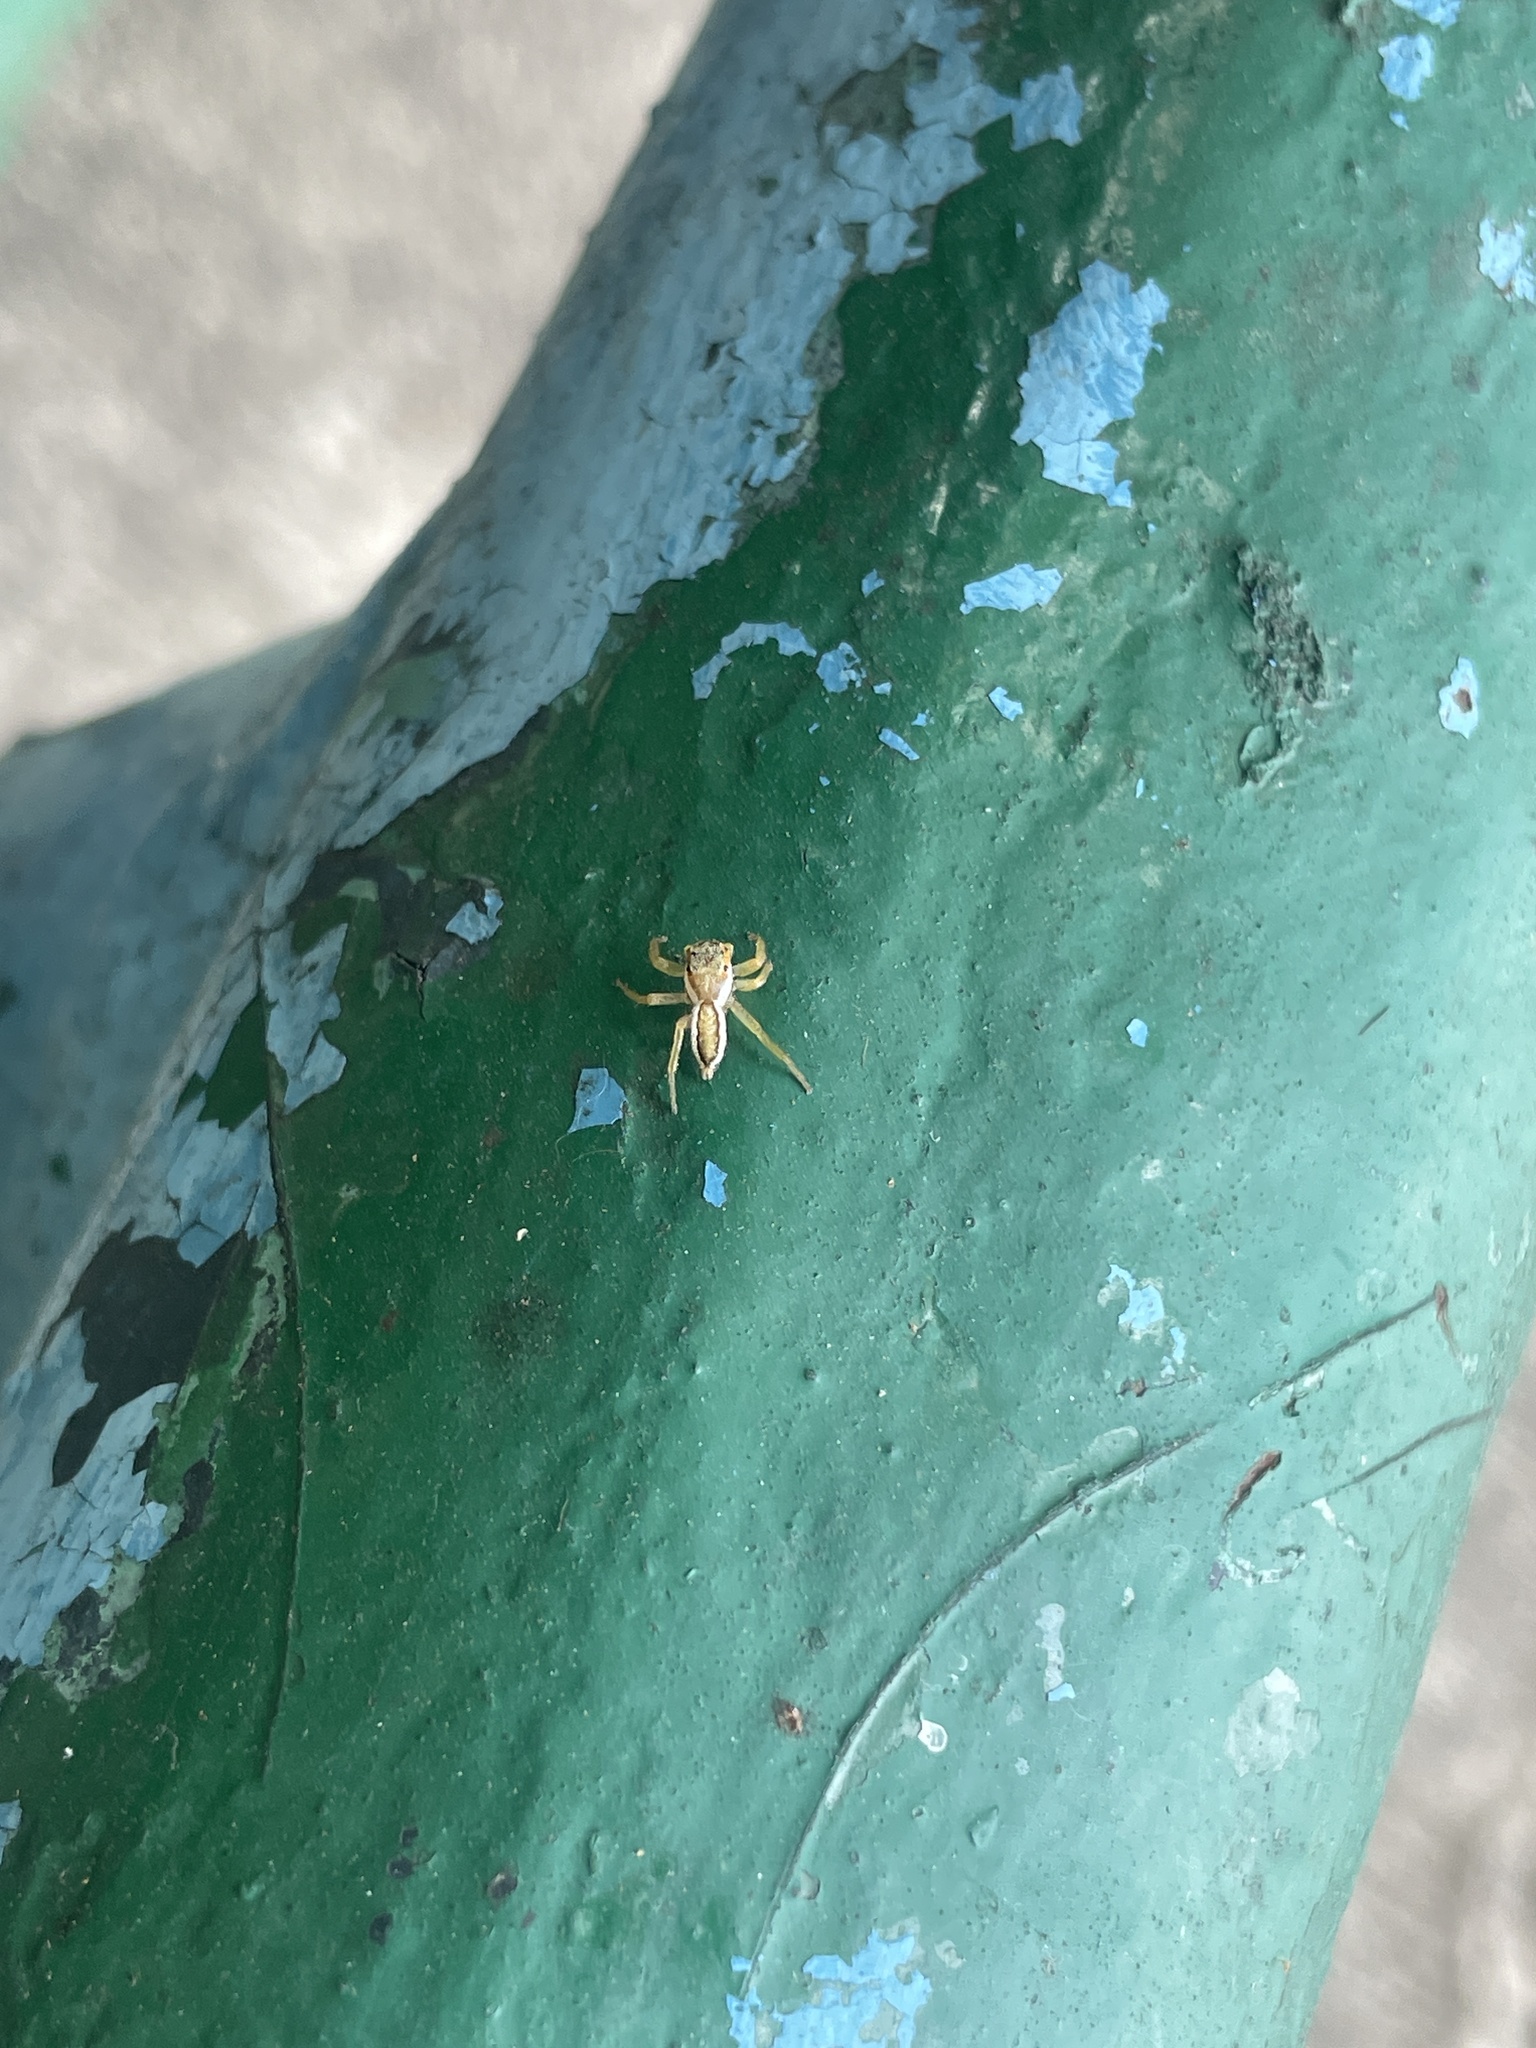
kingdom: Animalia
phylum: Arthropoda
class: Arachnida
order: Araneae
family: Salticidae
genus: Epocilla
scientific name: Epocilla blairei
